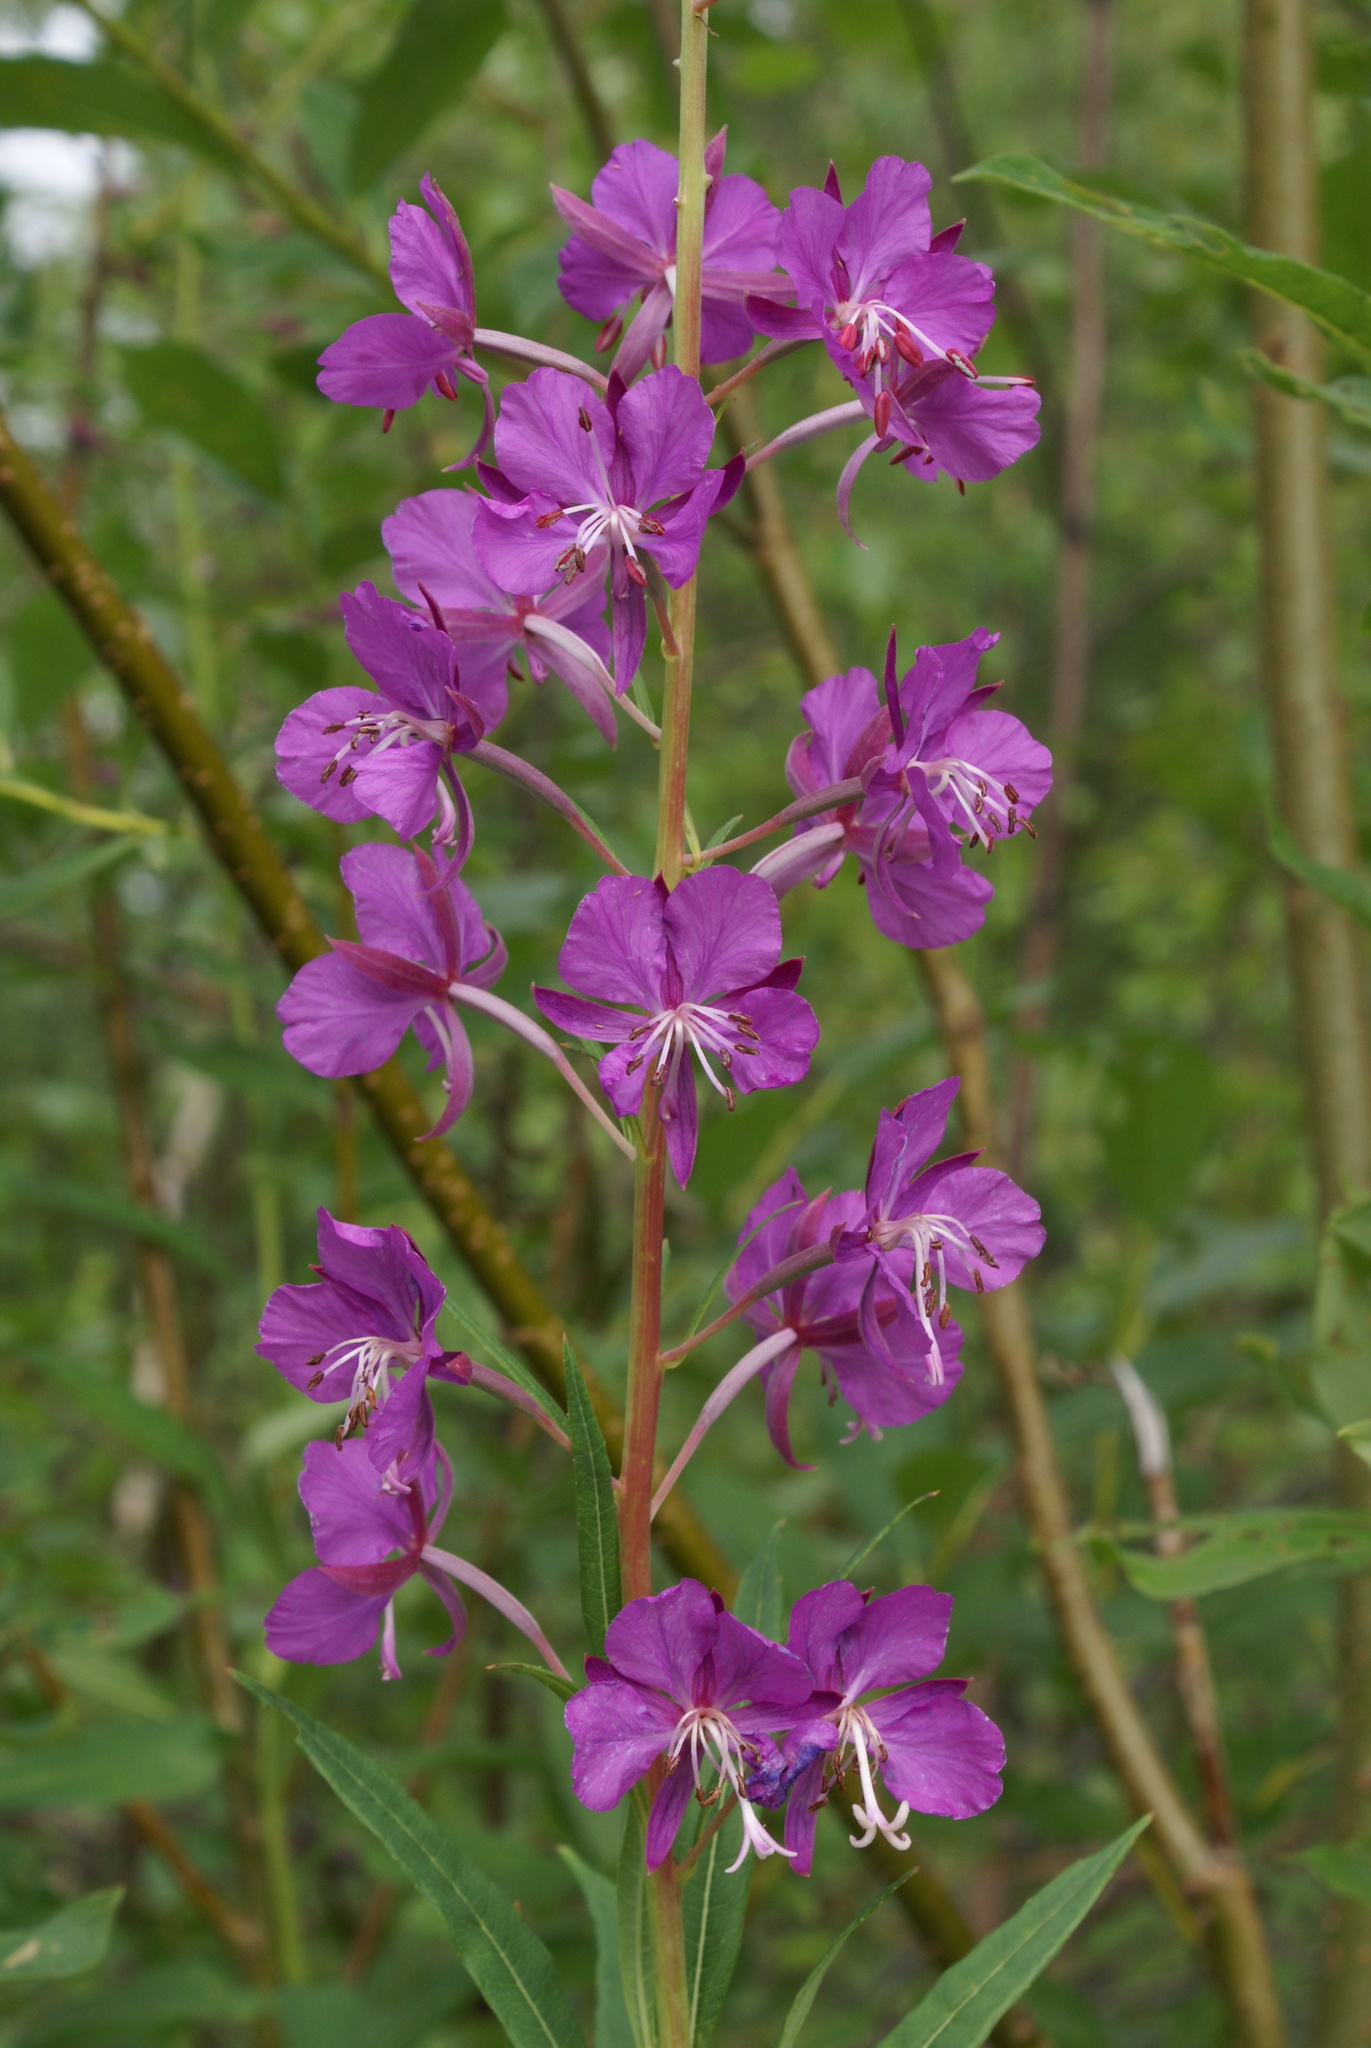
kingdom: Plantae
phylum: Tracheophyta
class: Magnoliopsida
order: Myrtales
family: Onagraceae
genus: Chamaenerion
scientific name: Chamaenerion angustifolium
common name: Fireweed
